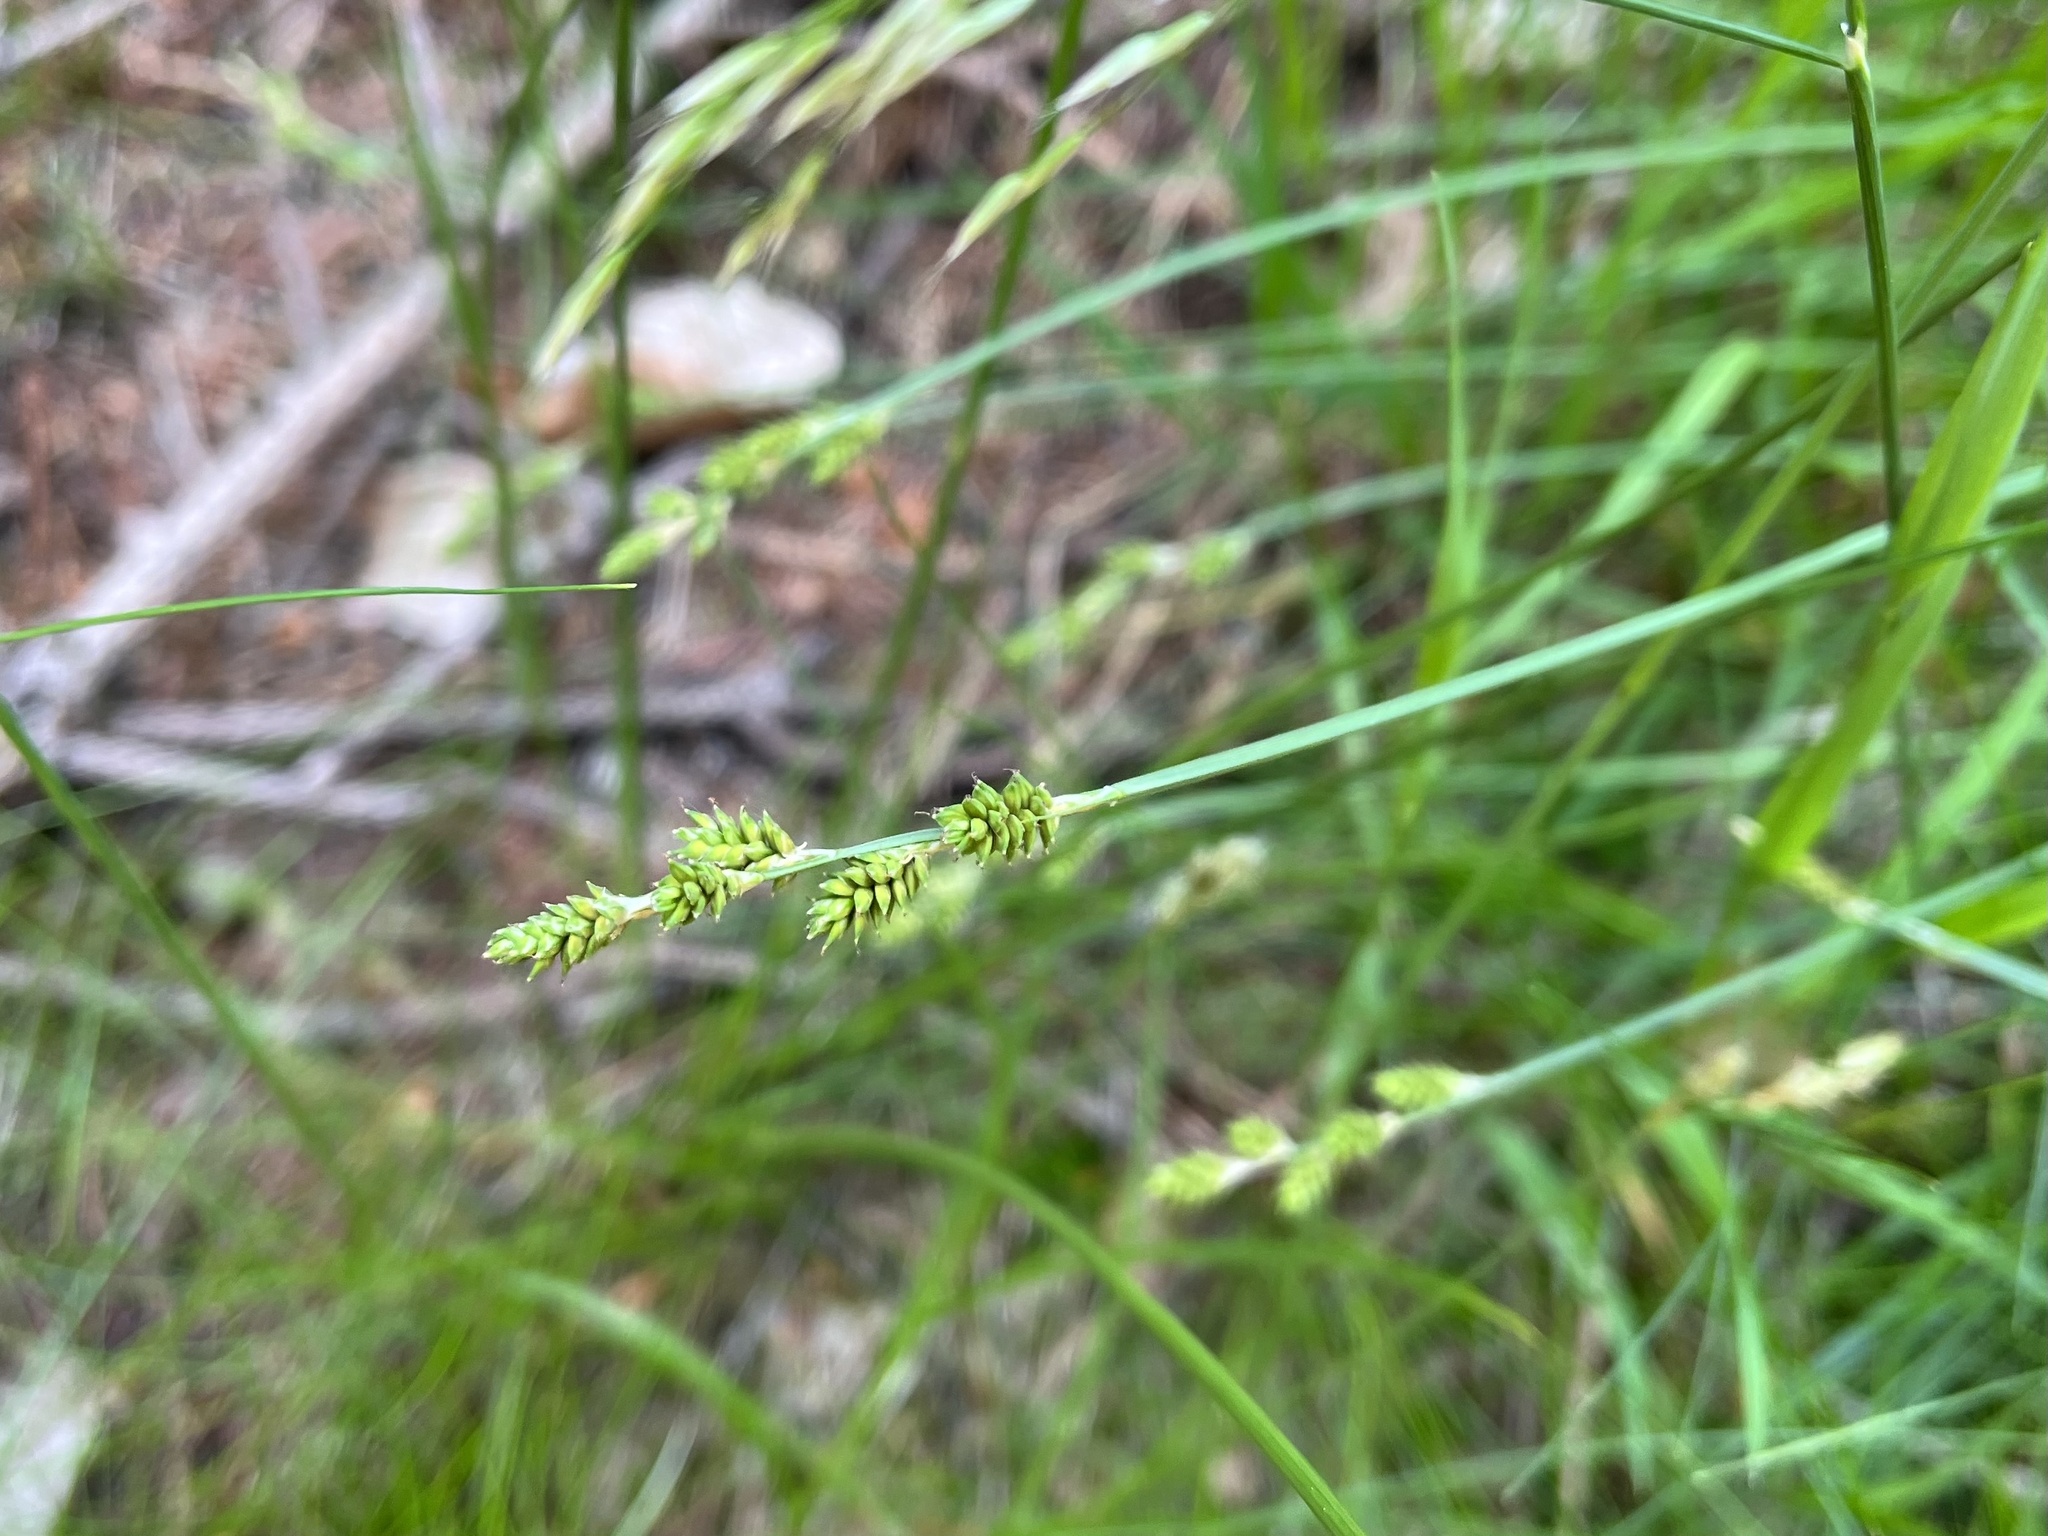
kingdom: Plantae
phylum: Tracheophyta
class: Liliopsida
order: Poales
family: Cyperaceae
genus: Carex
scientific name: Carex canescens
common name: White sedge
